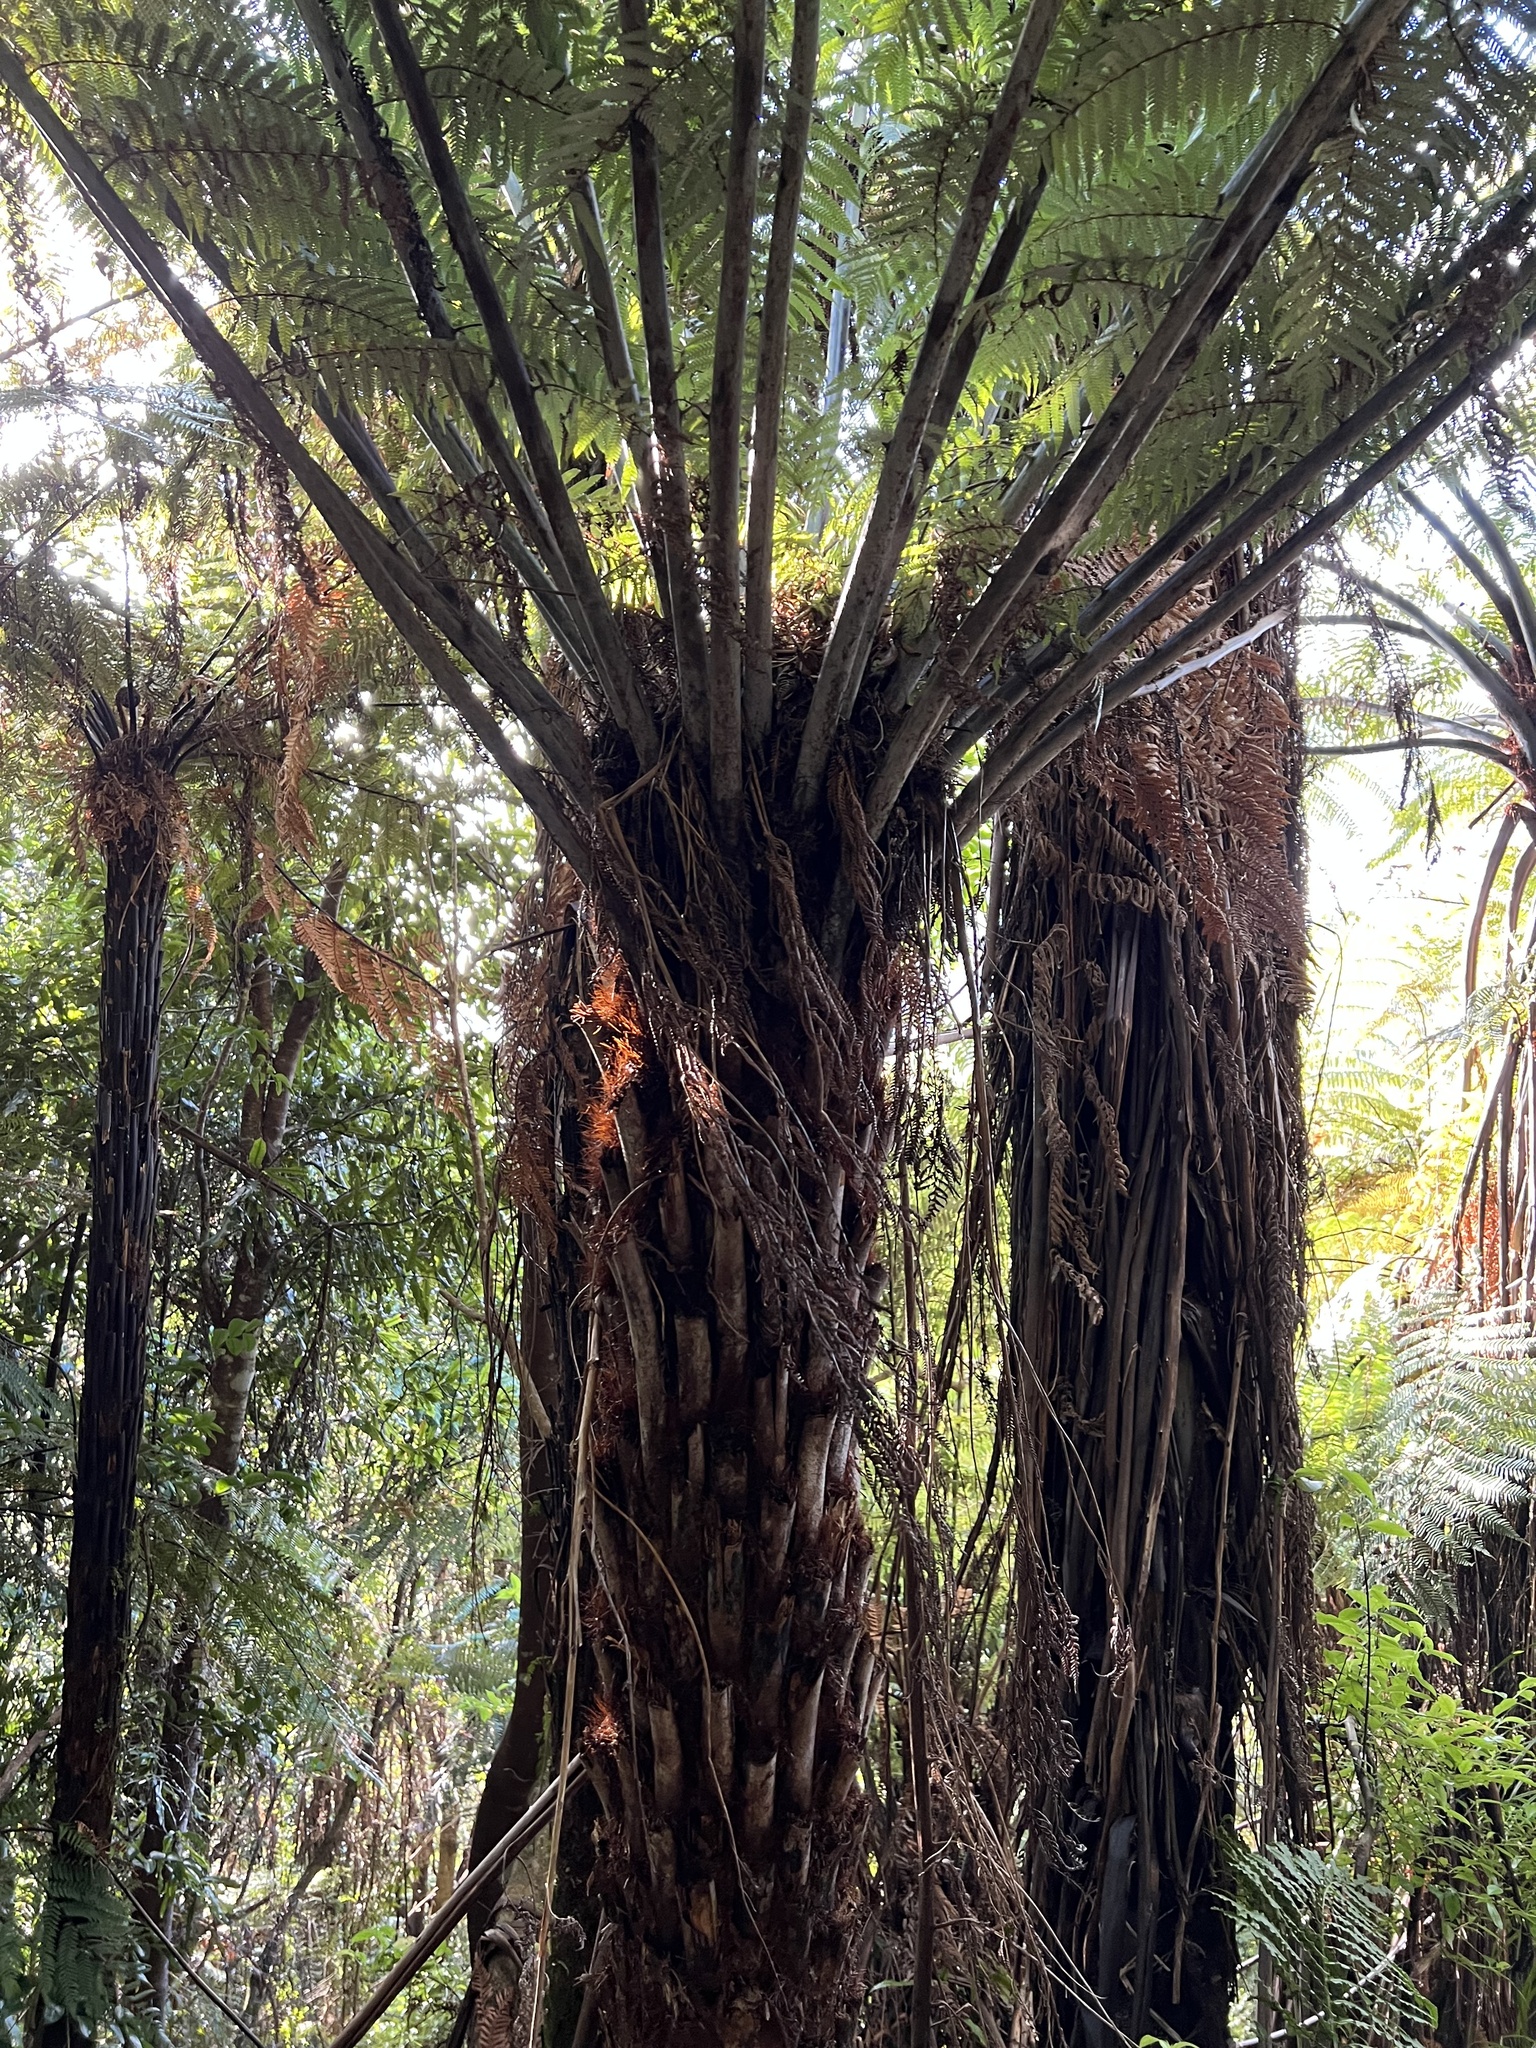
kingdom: Plantae
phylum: Tracheophyta
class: Polypodiopsida
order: Cyatheales
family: Cyatheaceae
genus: Alsophila
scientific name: Alsophila dealbata
